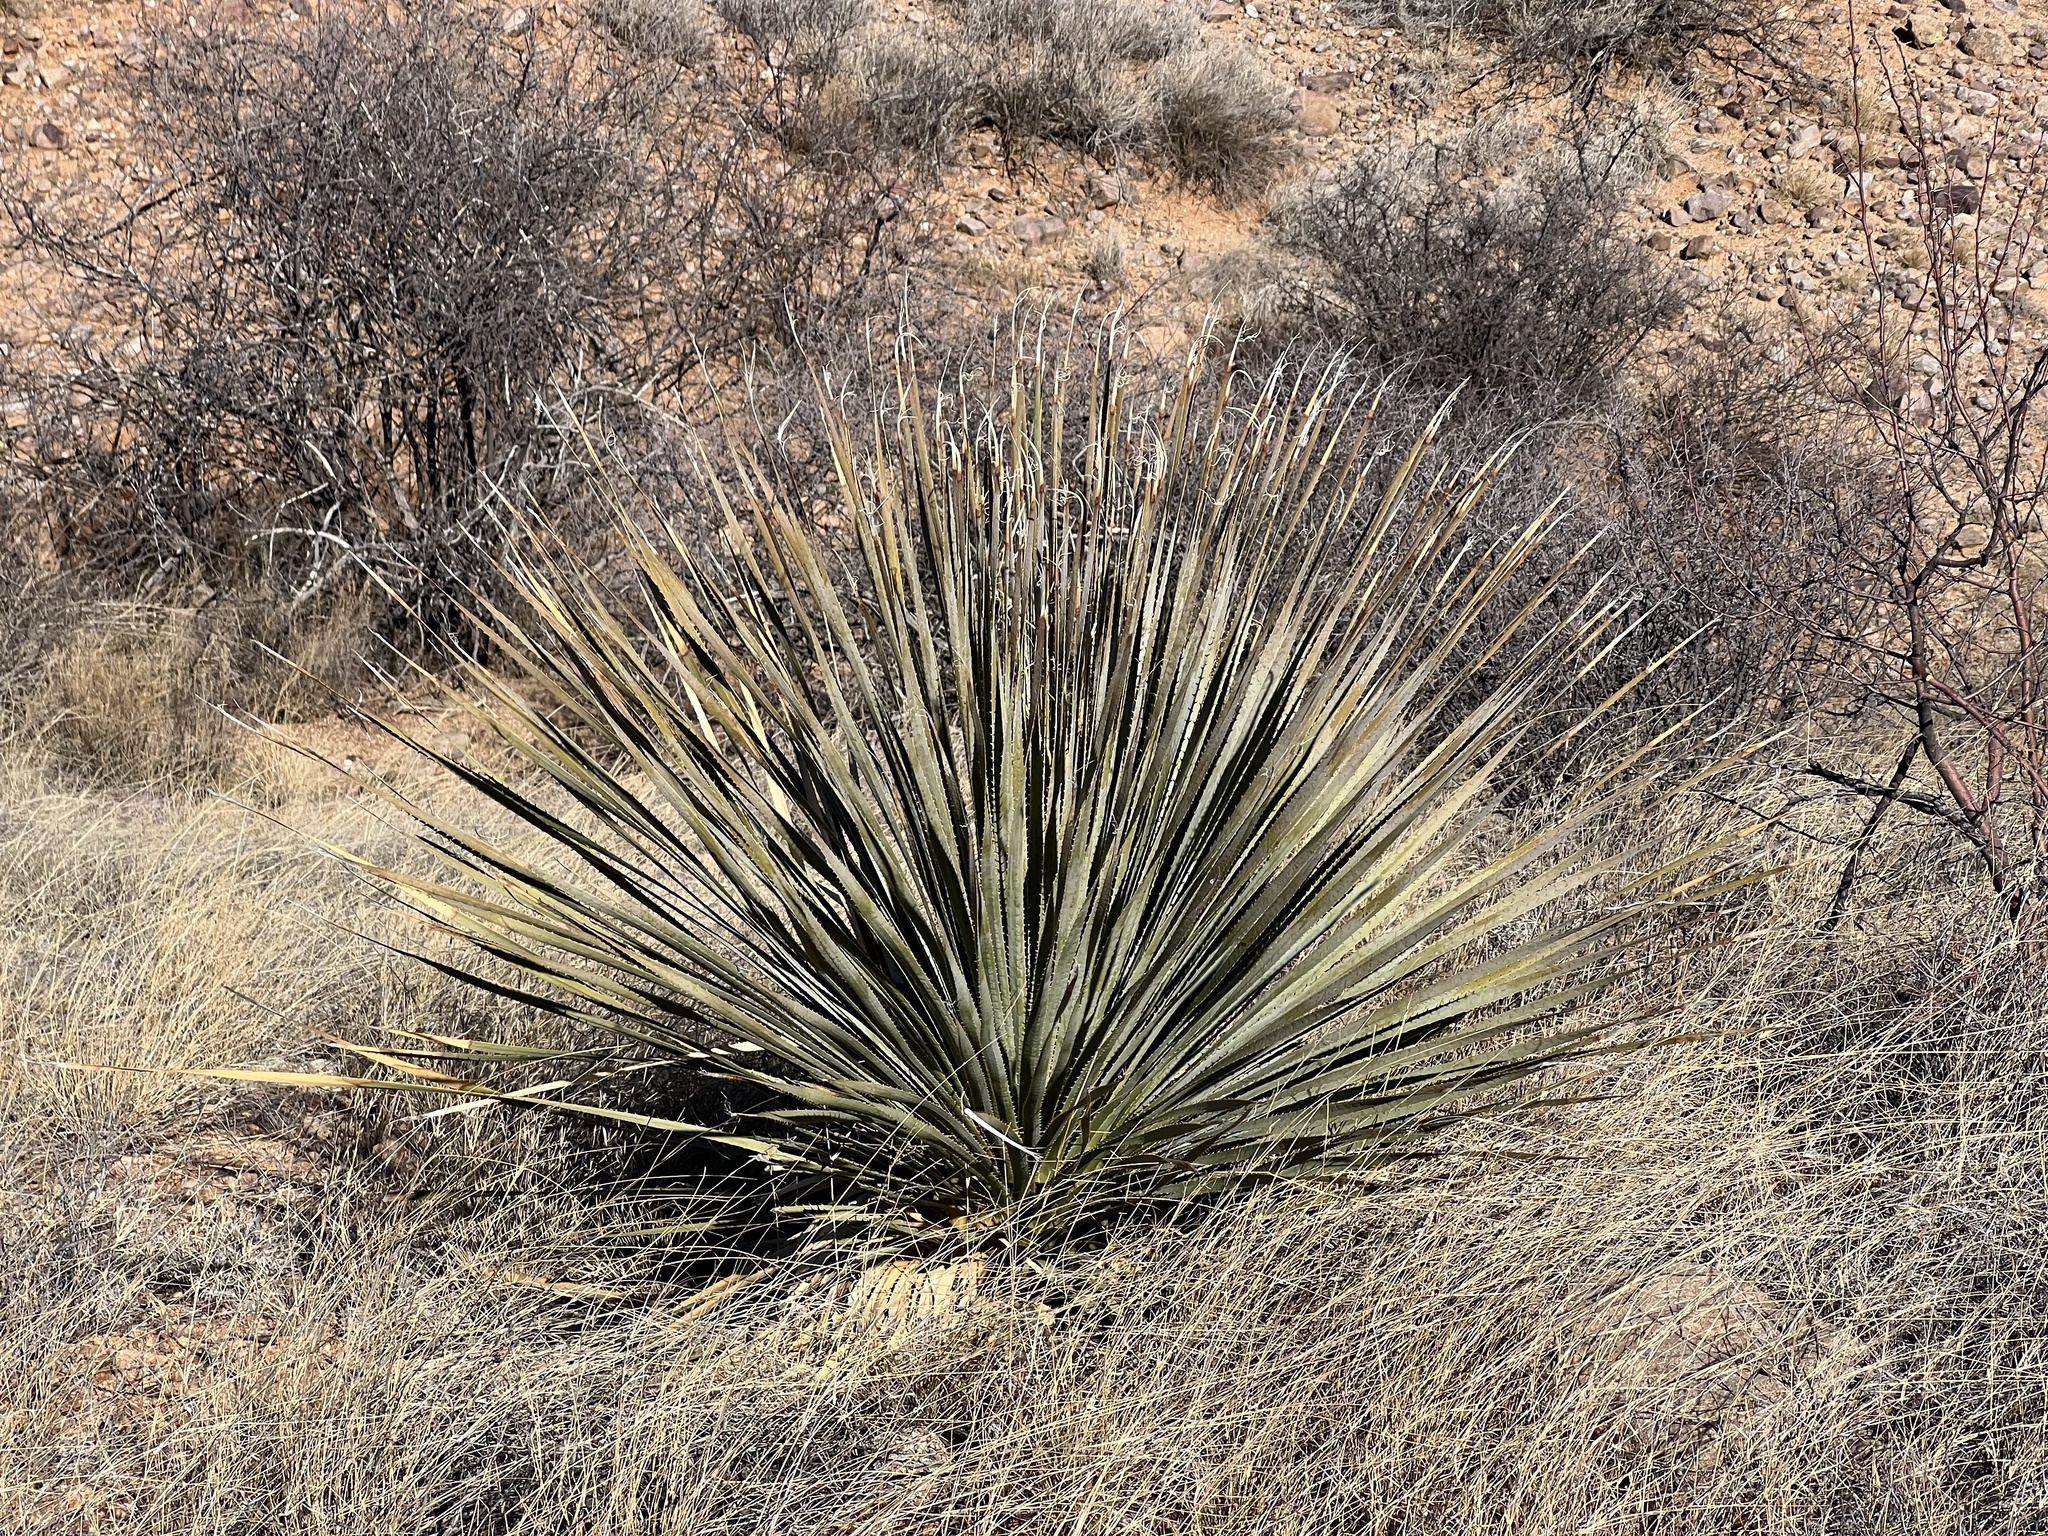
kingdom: Plantae
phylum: Tracheophyta
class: Liliopsida
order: Asparagales
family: Asparagaceae
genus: Dasylirion
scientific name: Dasylirion wheeleri
